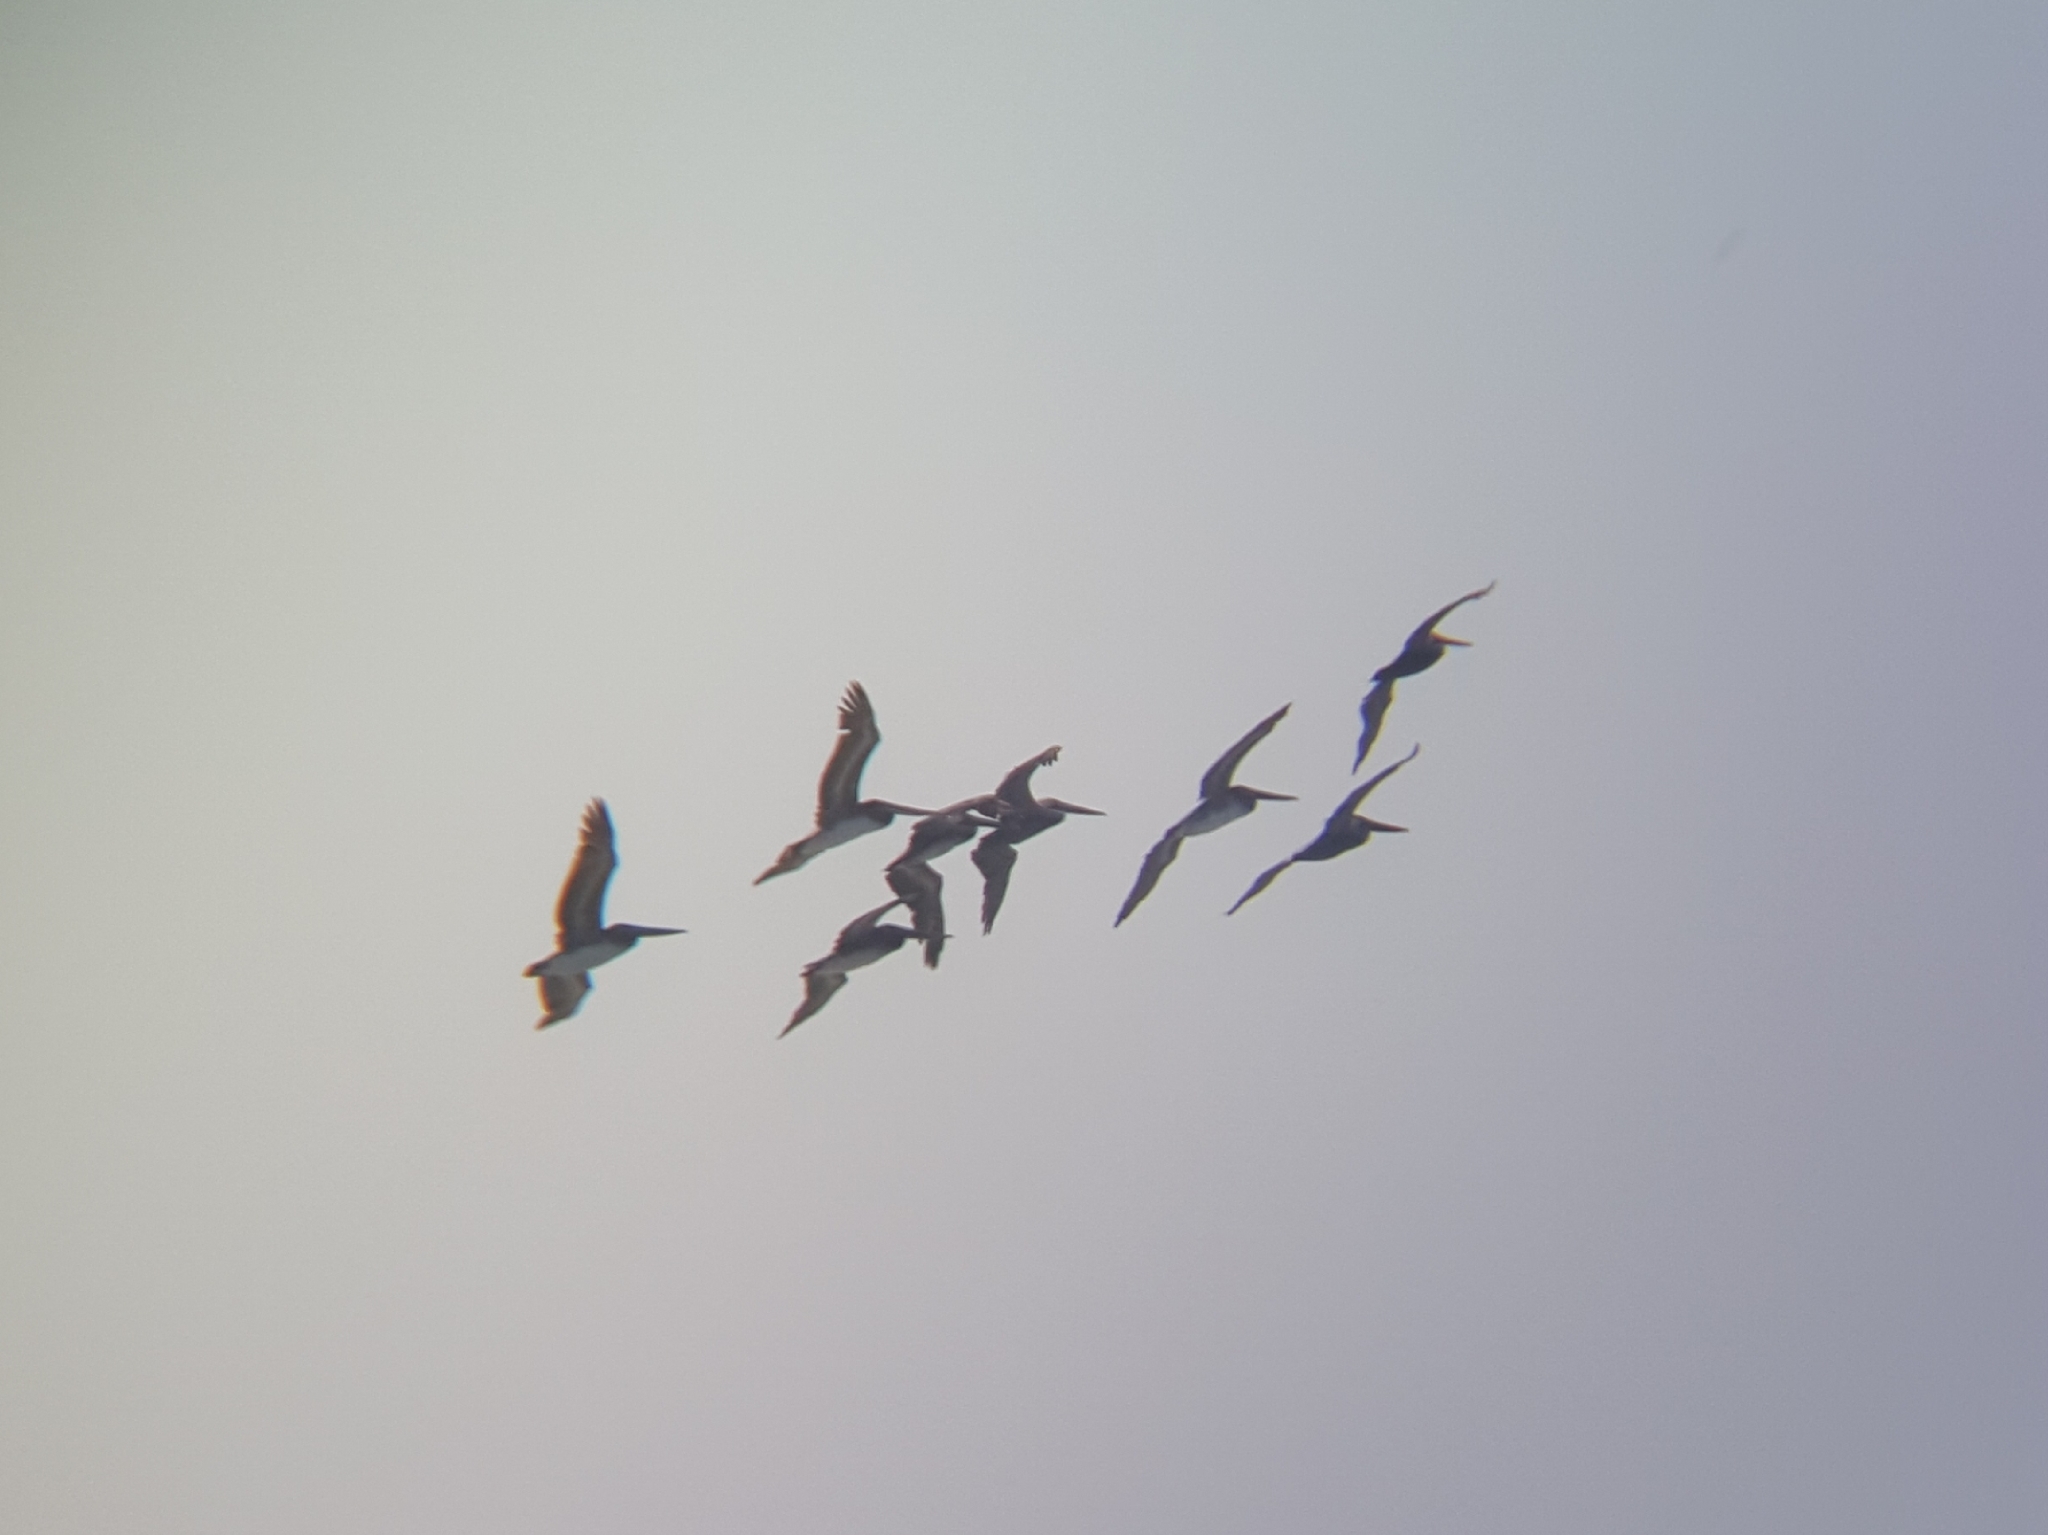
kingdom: Animalia
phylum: Chordata
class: Aves
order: Pelecaniformes
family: Pelecanidae
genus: Pelecanus
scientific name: Pelecanus occidentalis
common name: Brown pelican
